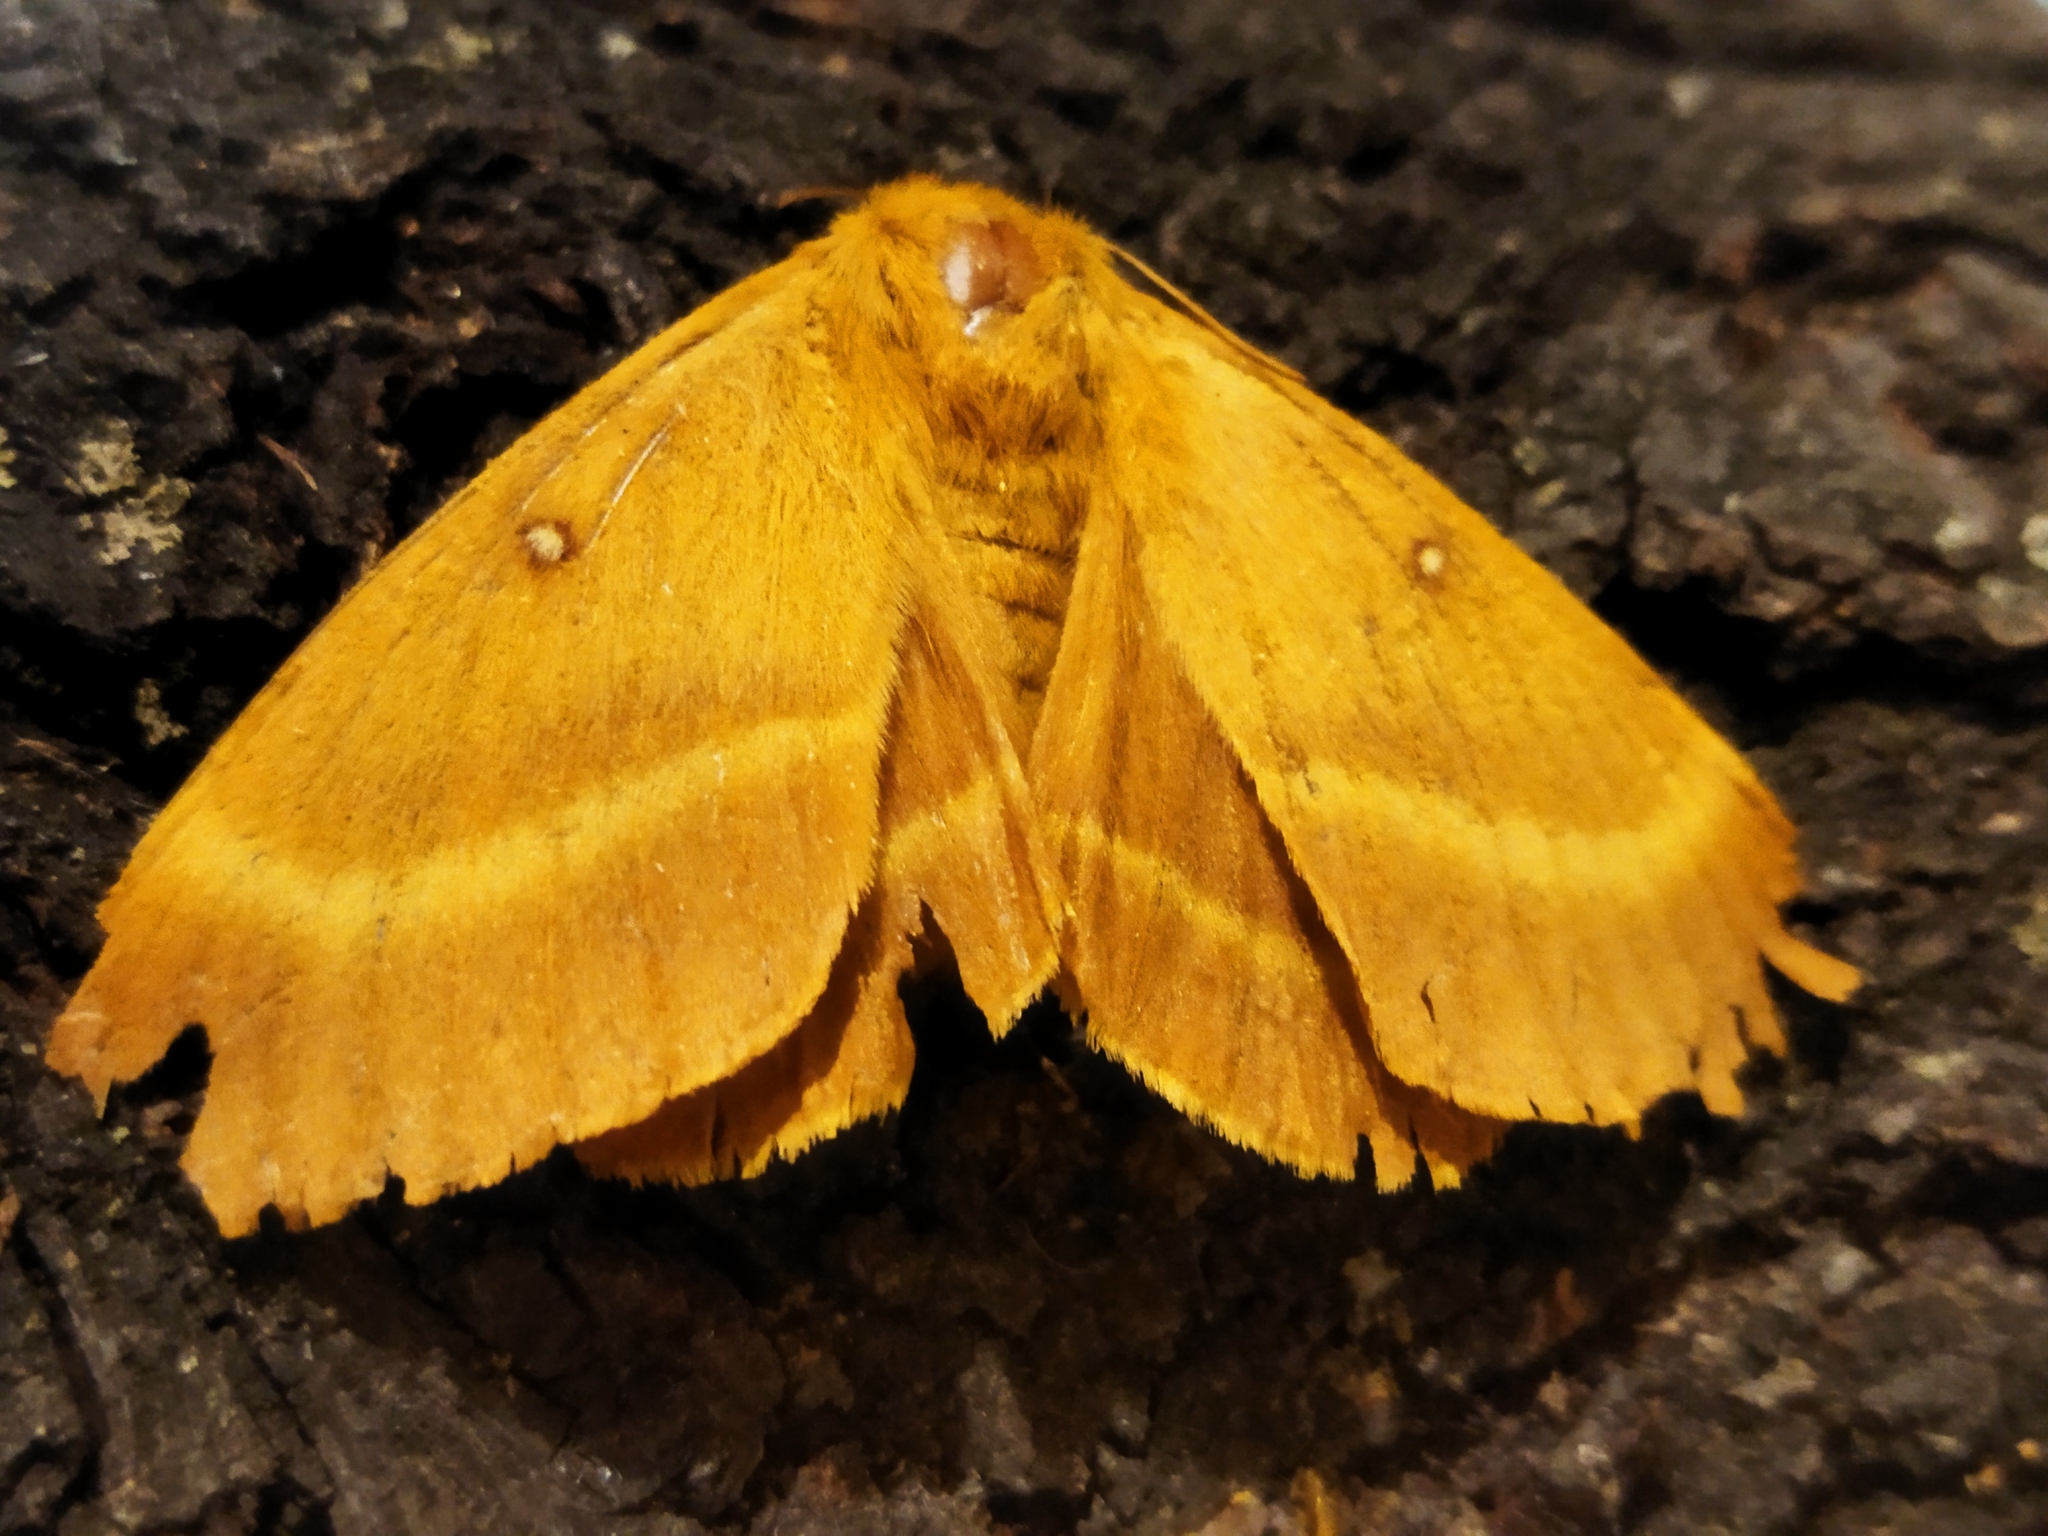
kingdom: Animalia
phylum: Arthropoda
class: Insecta
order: Lepidoptera
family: Lasiocampidae
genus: Lasiocampa
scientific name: Lasiocampa quercus
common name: Oak eggar
